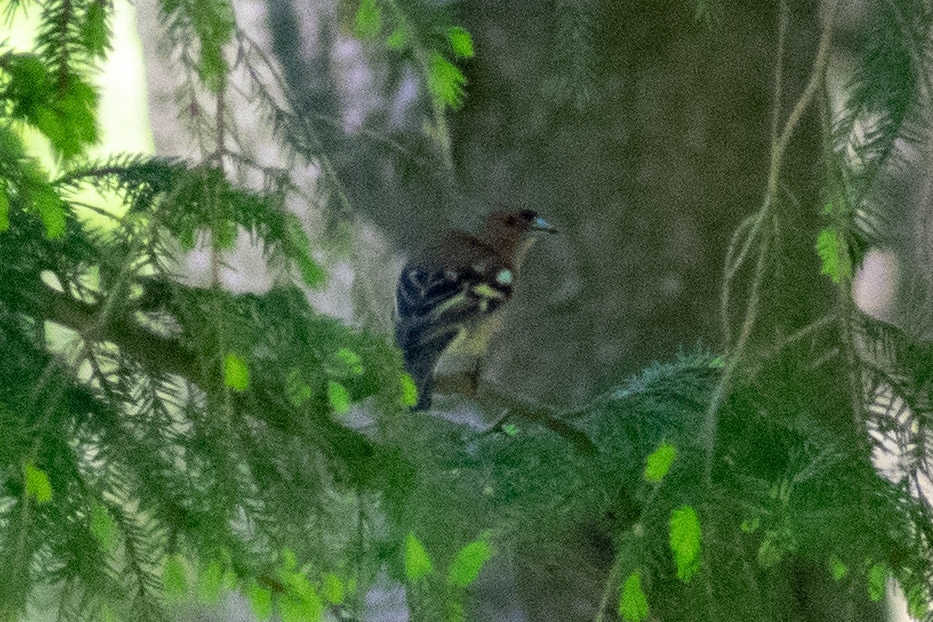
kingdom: Animalia
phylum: Chordata
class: Aves
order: Passeriformes
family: Fringillidae
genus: Fringilla
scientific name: Fringilla coelebs
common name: Common chaffinch
